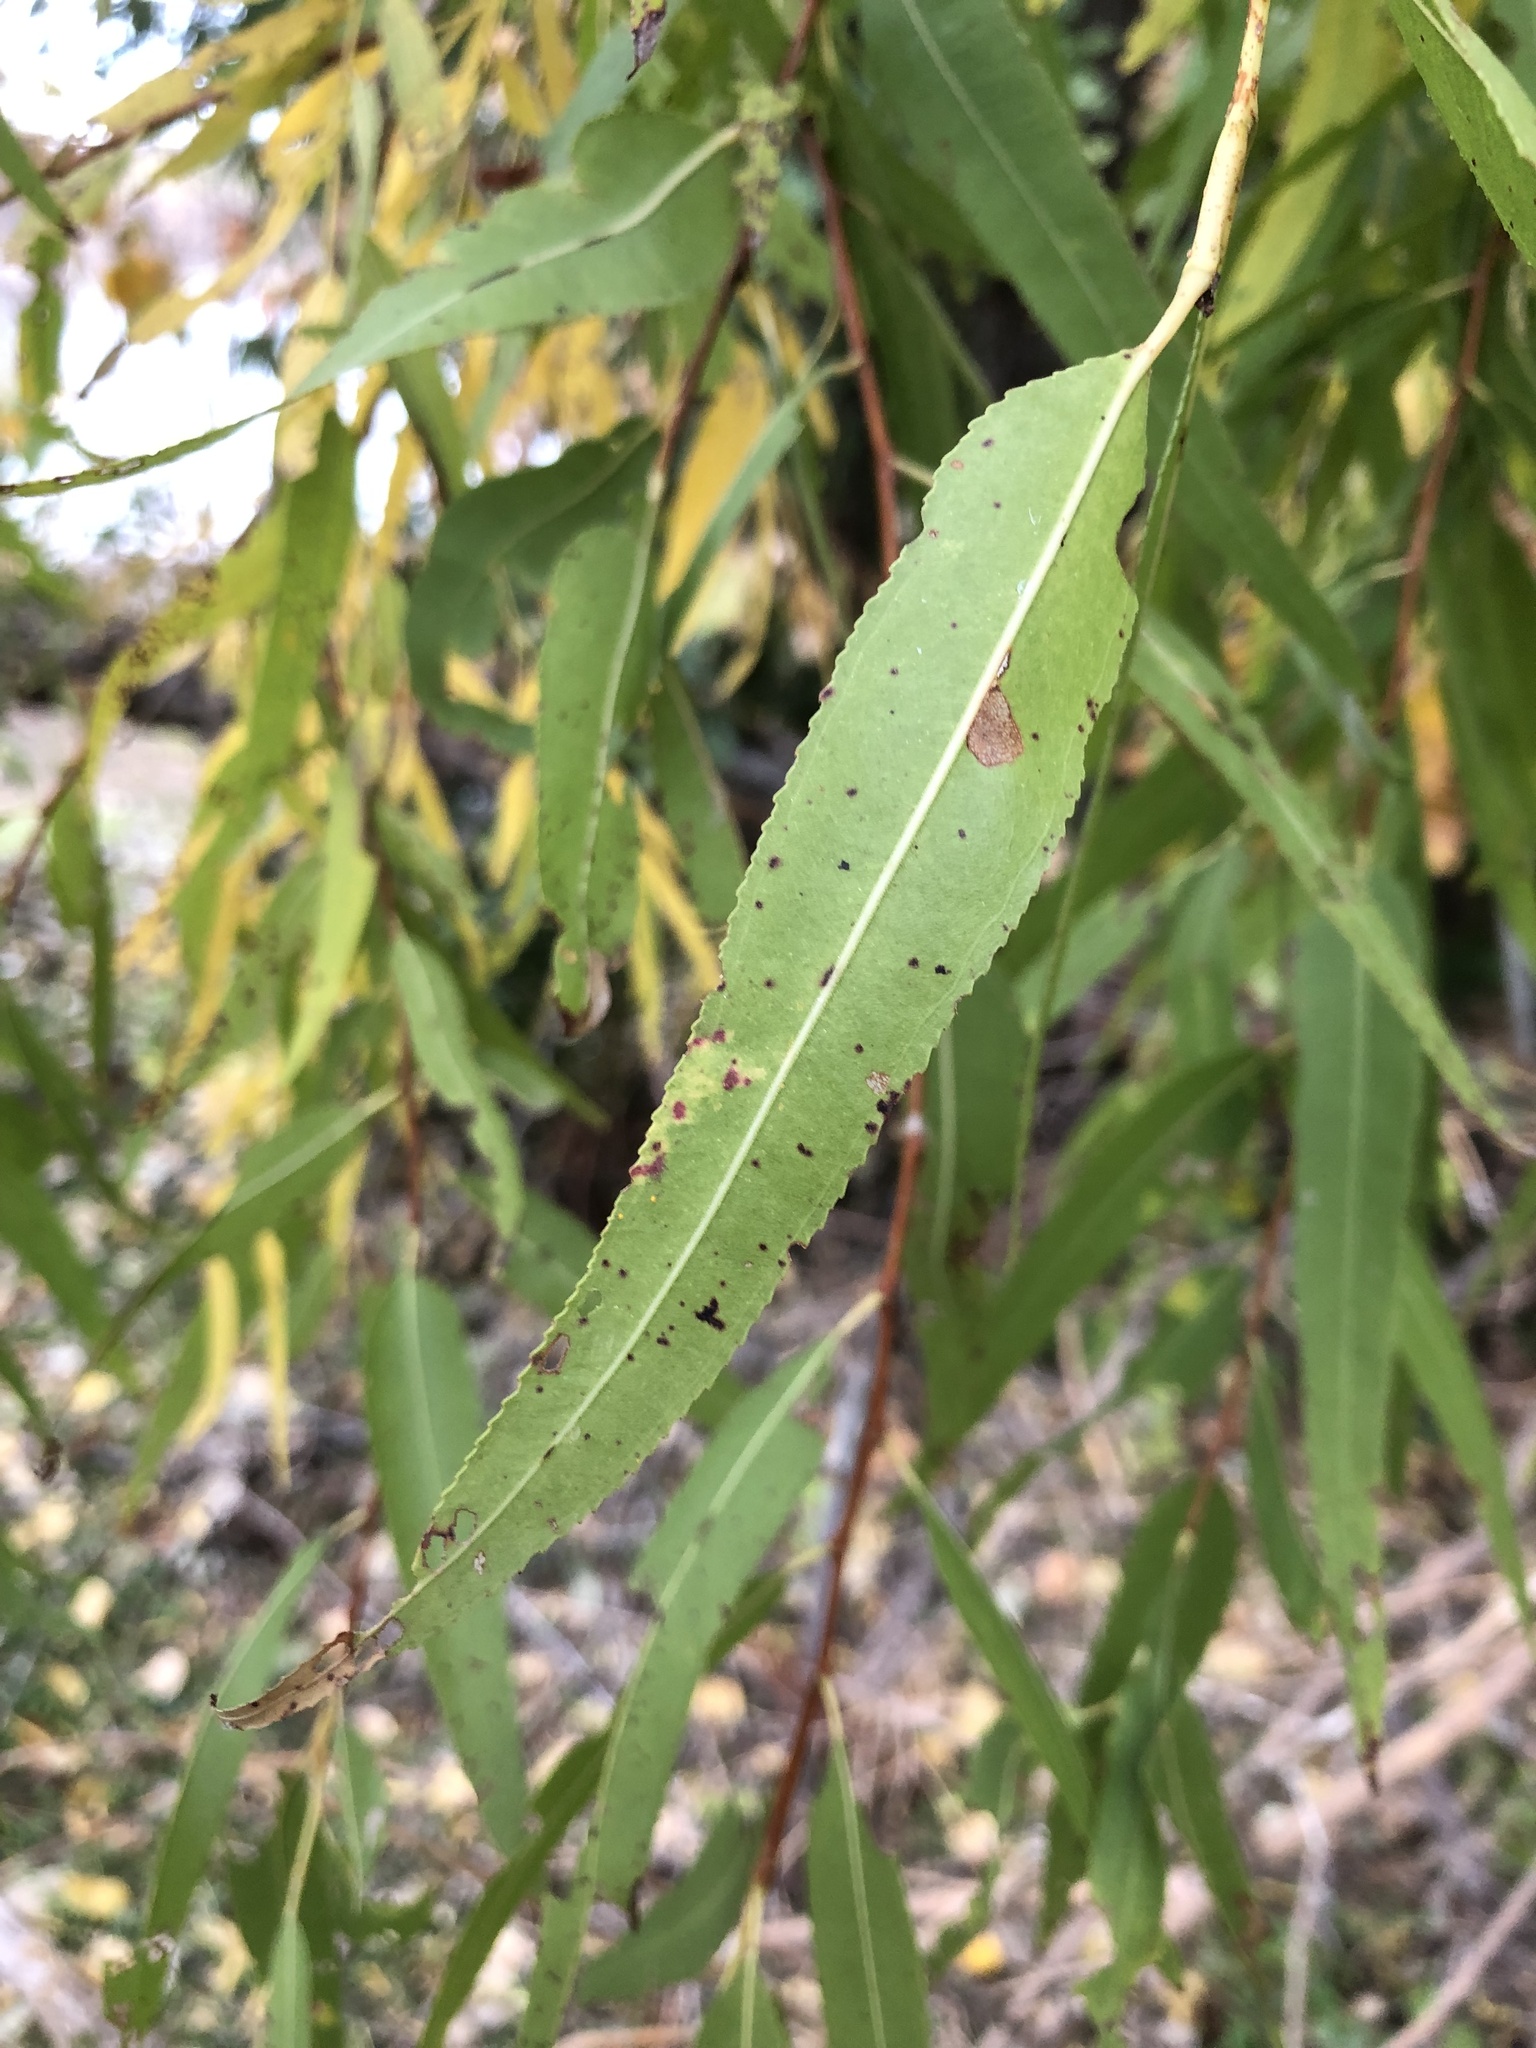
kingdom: Plantae
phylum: Tracheophyta
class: Magnoliopsida
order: Malpighiales
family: Salicaceae
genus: Salix
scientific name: Salix nigra
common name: Black willow
